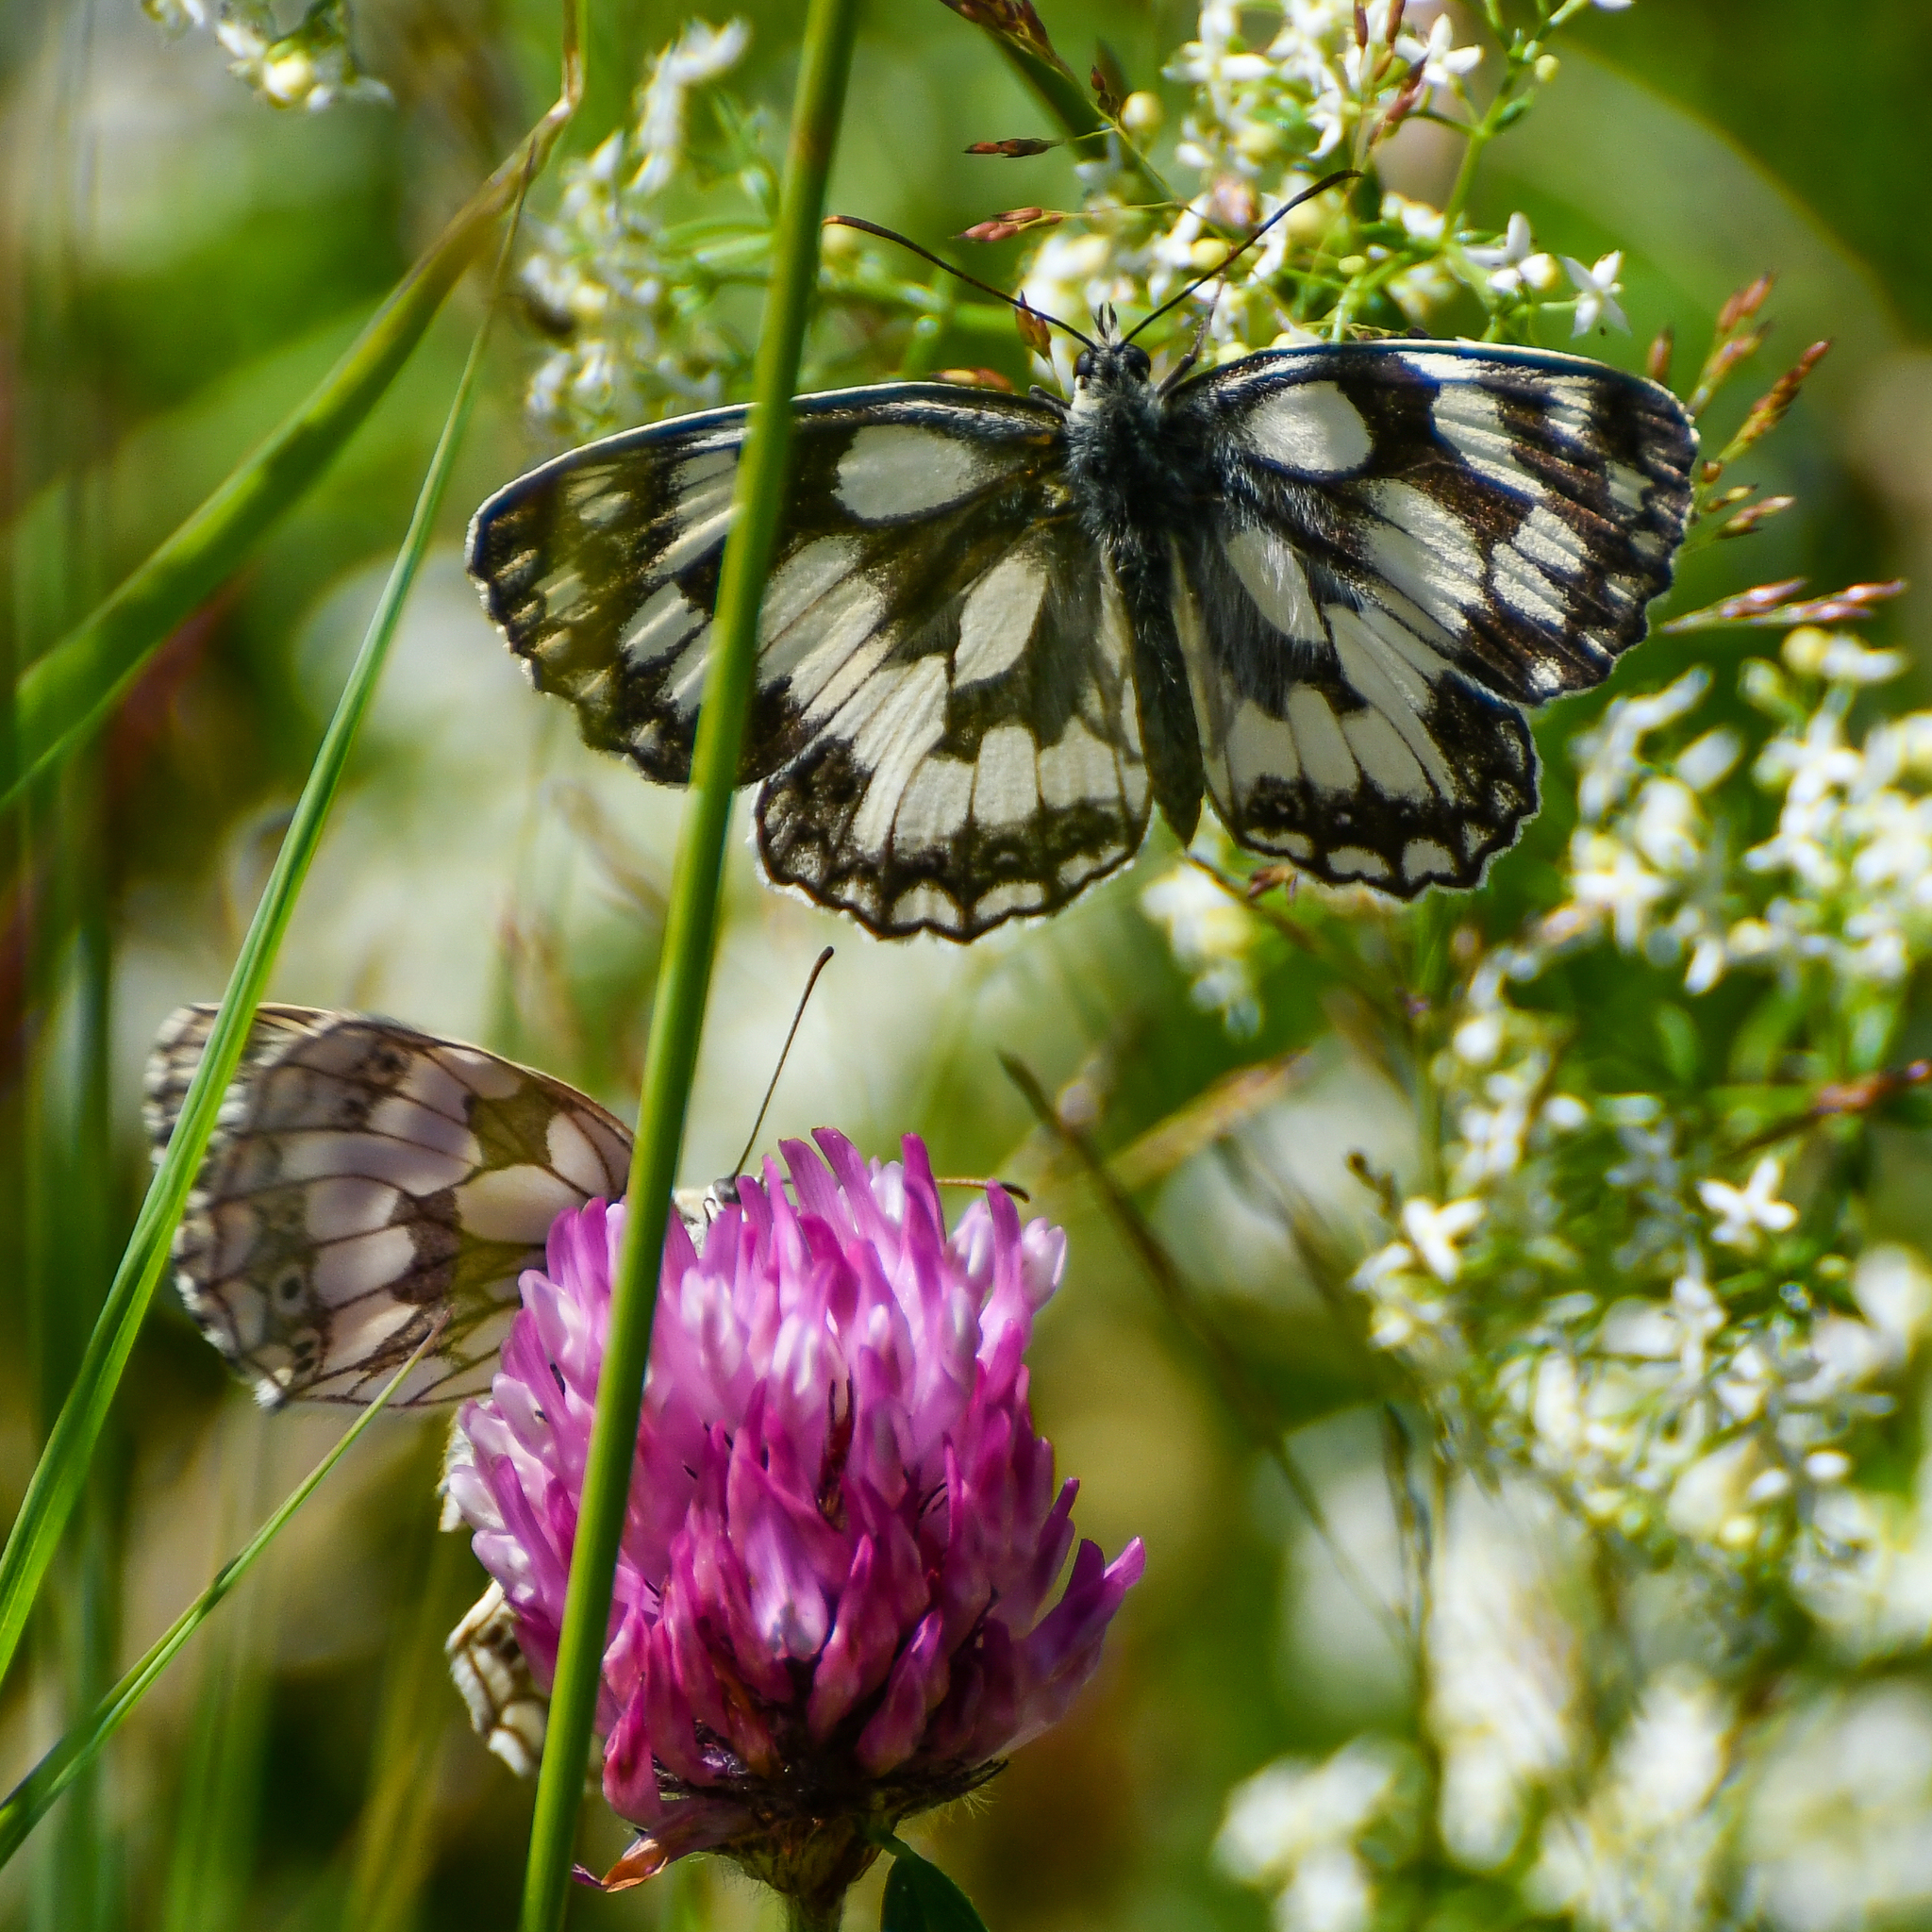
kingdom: Animalia
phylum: Arthropoda
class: Insecta
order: Lepidoptera
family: Nymphalidae
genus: Melanargia
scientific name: Melanargia galathea
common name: Marbled white
